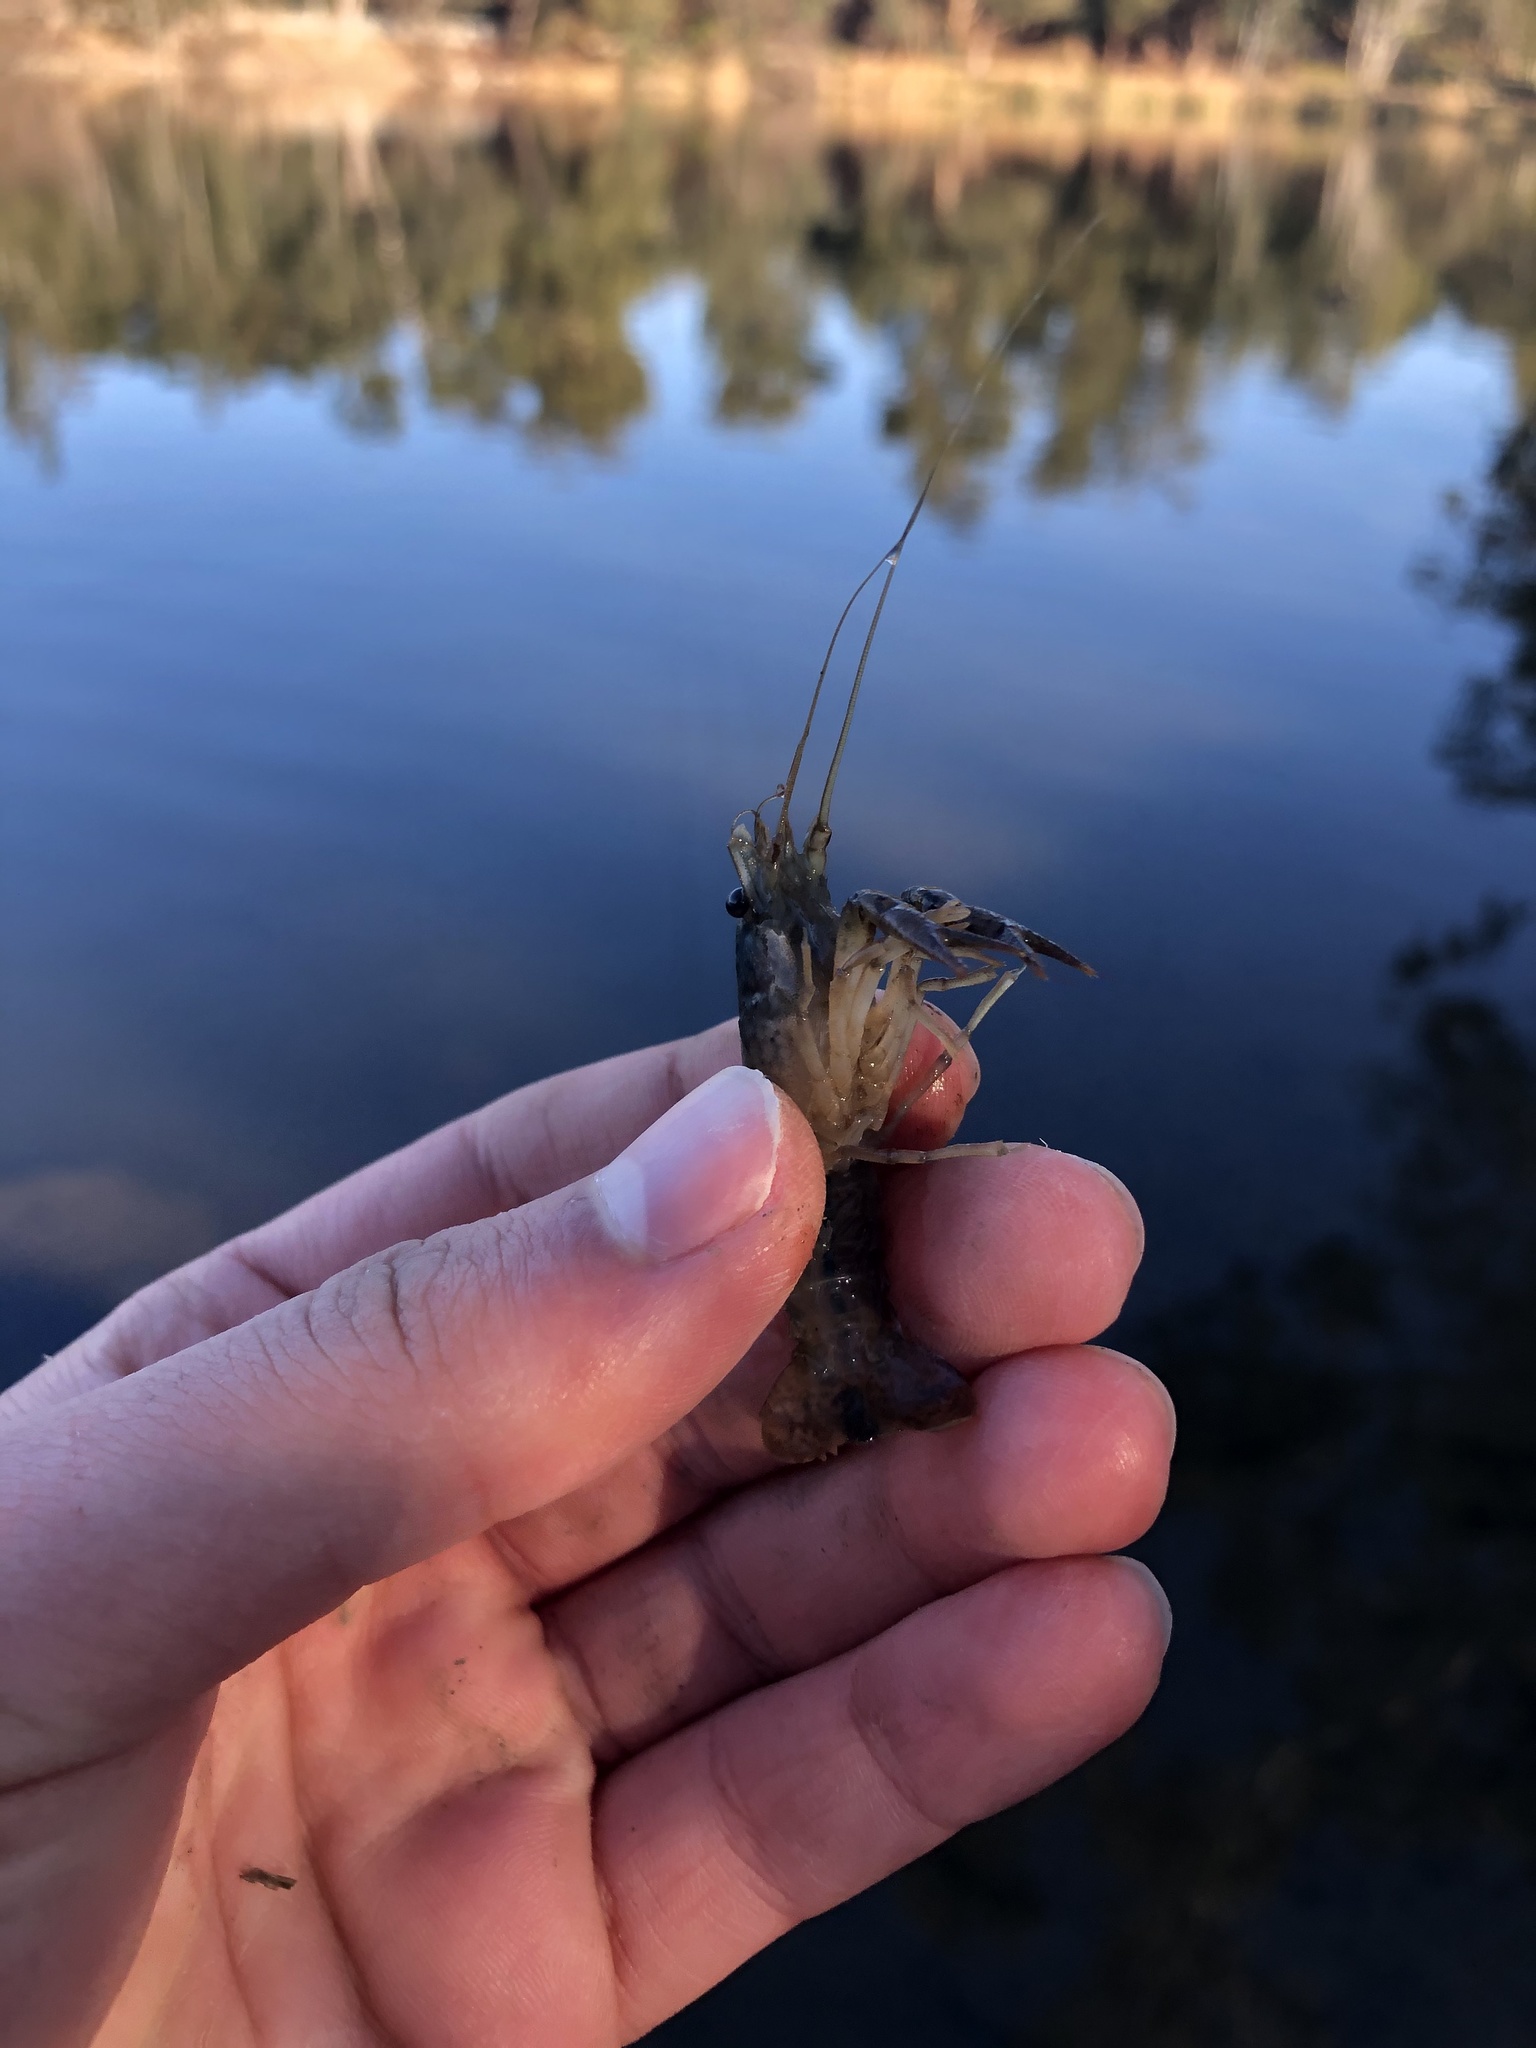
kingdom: Animalia
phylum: Arthropoda
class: Malacostraca
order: Decapoda
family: Cambaridae
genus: Procambarus
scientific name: Procambarus clarkii
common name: Red swamp crayfish
